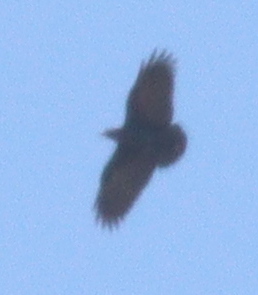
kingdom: Animalia
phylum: Chordata
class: Aves
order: Passeriformes
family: Corvidae
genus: Corvus
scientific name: Corvus rhipidurus
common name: Fan-tailed raven
